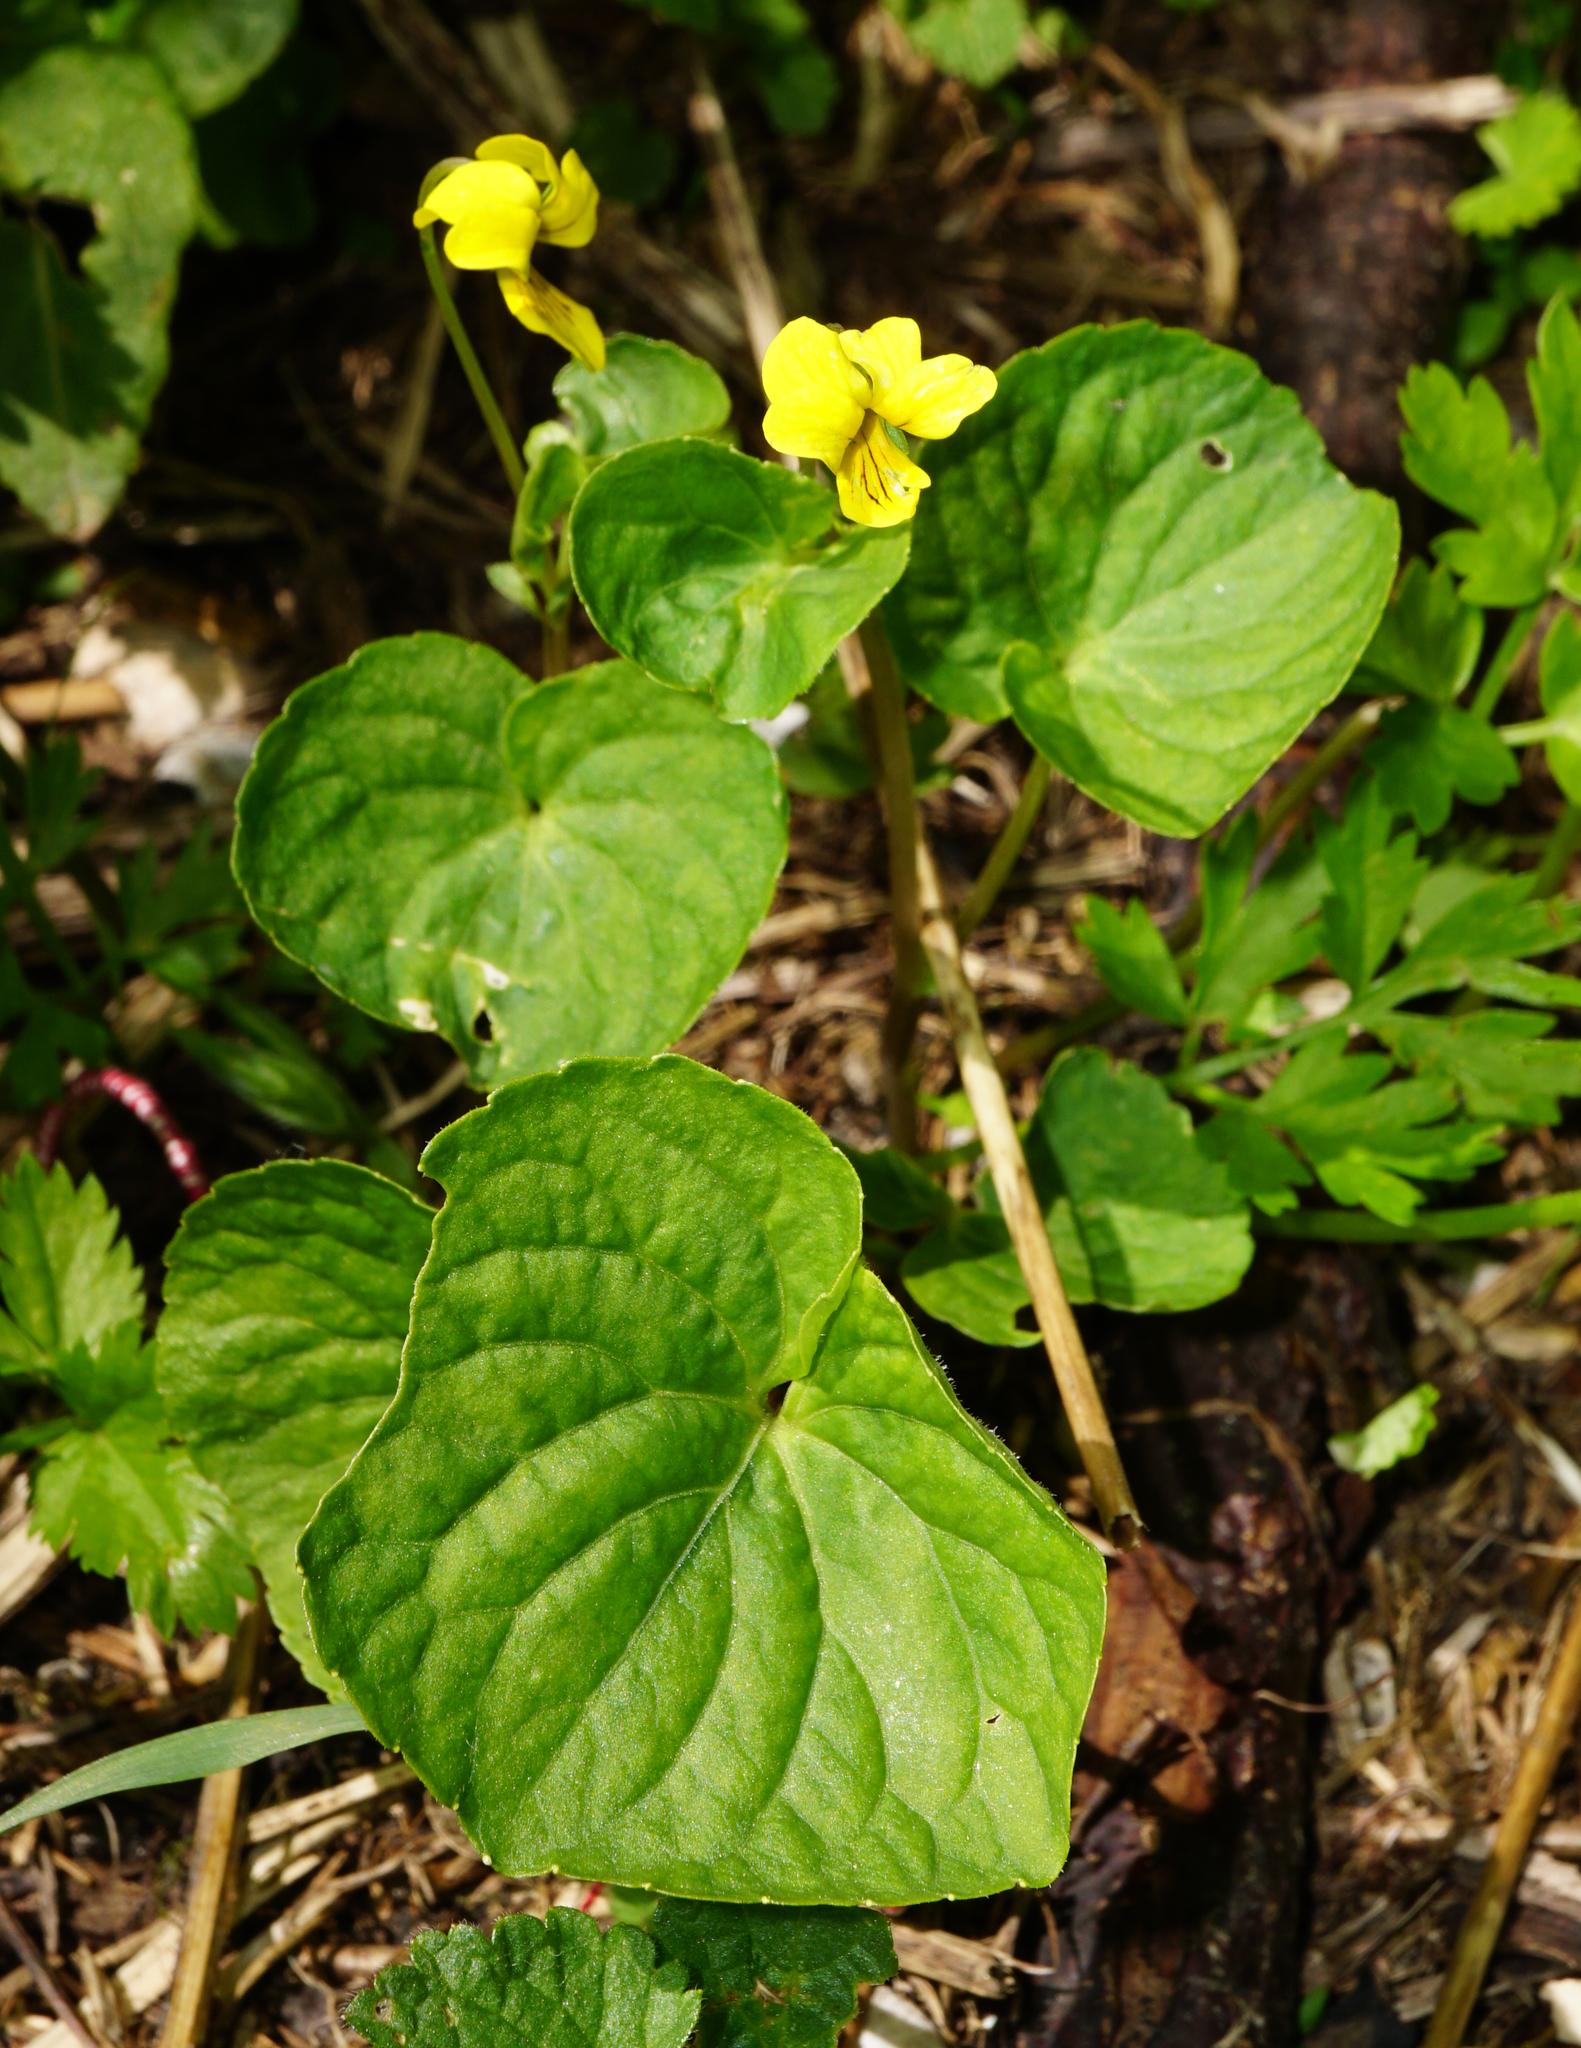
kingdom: Plantae
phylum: Tracheophyta
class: Magnoliopsida
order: Malpighiales
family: Violaceae
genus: Viola
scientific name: Viola biflora
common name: Alpine yellow violet
